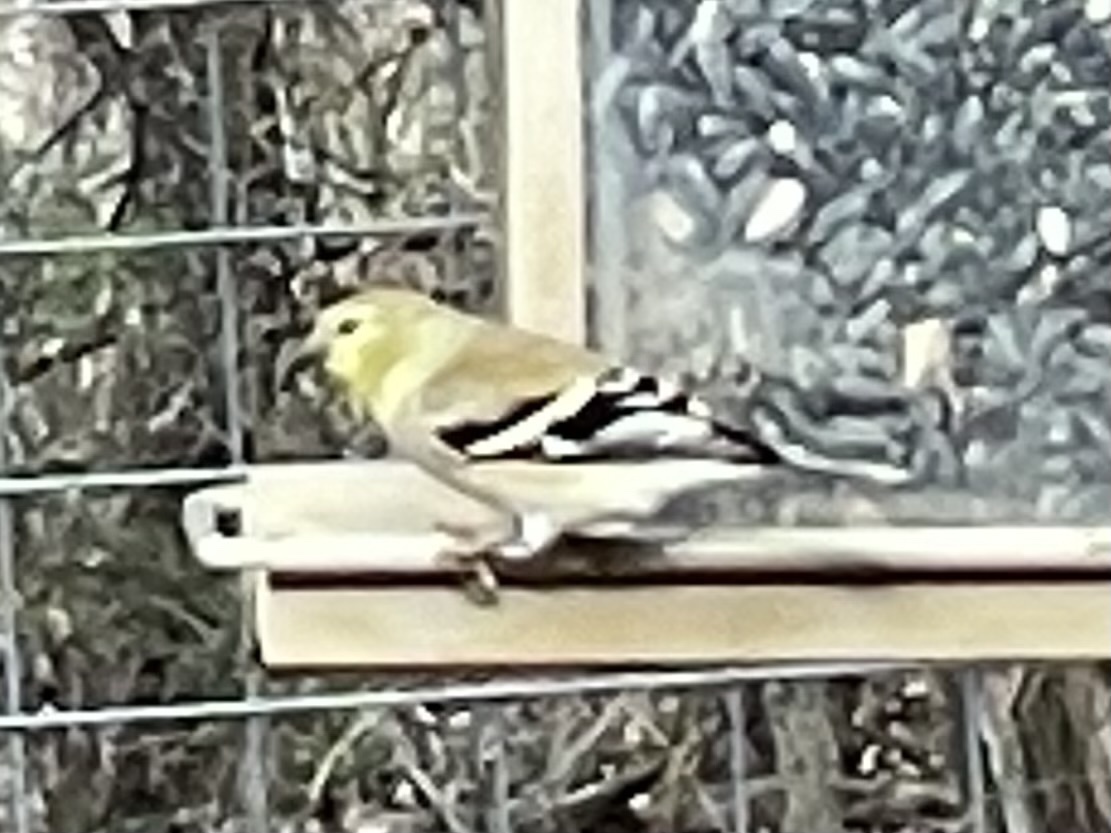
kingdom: Animalia
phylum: Chordata
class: Aves
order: Passeriformes
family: Fringillidae
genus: Spinus
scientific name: Spinus tristis
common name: American goldfinch
